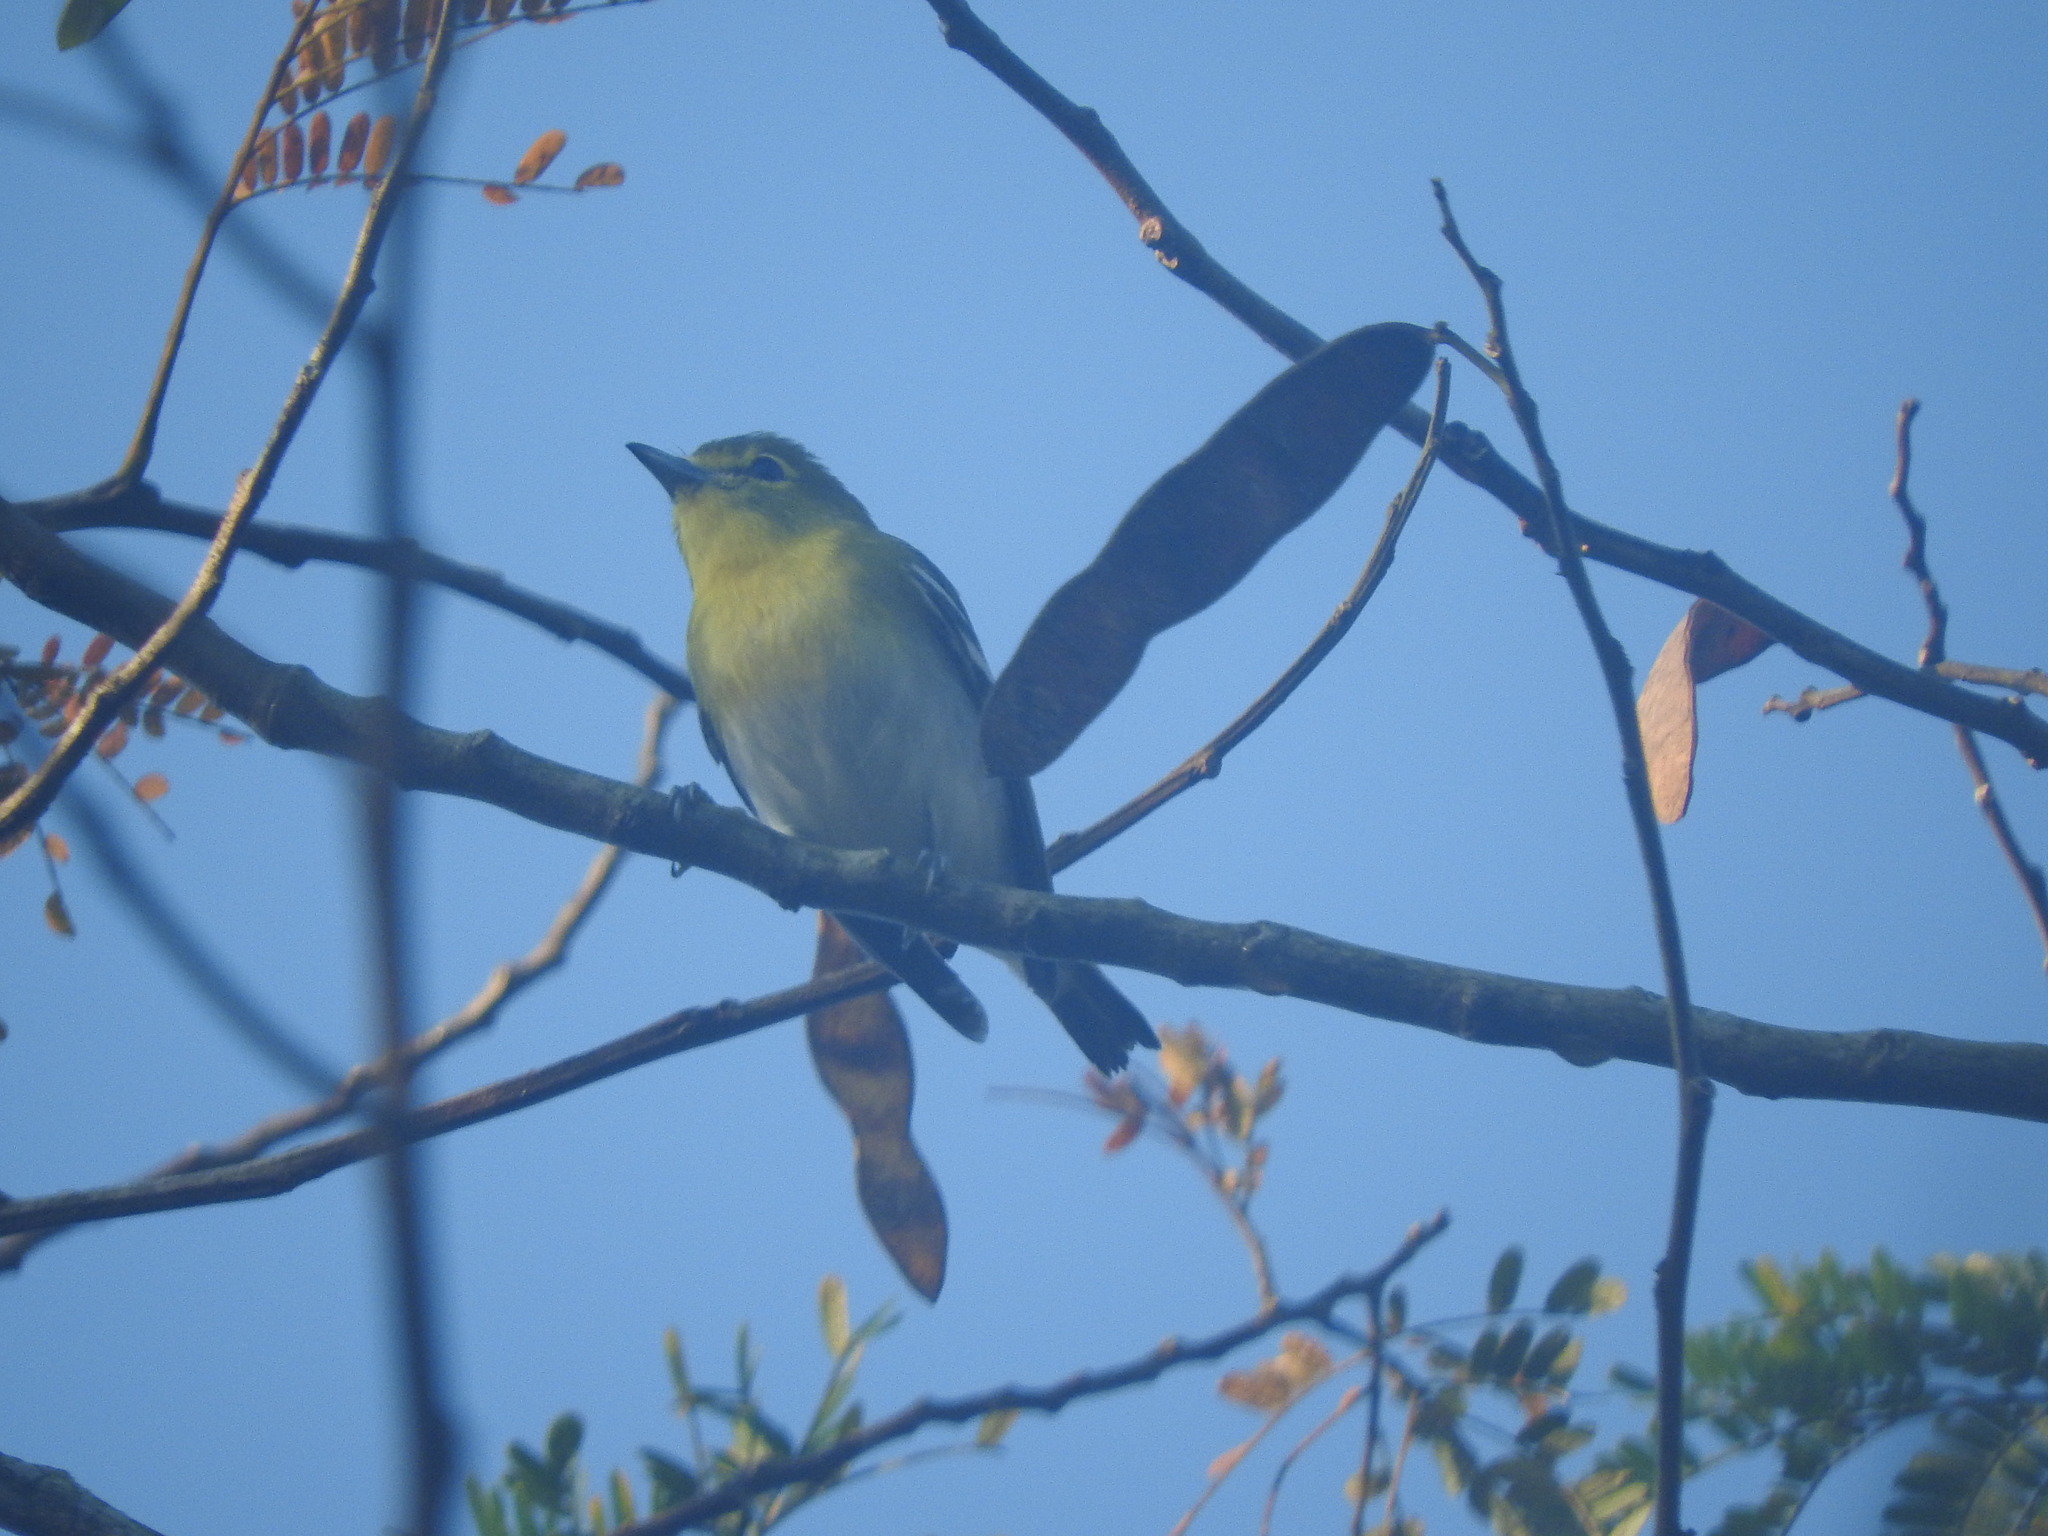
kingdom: Animalia
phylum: Chordata
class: Aves
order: Passeriformes
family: Vireonidae
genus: Vireo
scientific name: Vireo flavifrons
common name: Yellow-throated vireo
